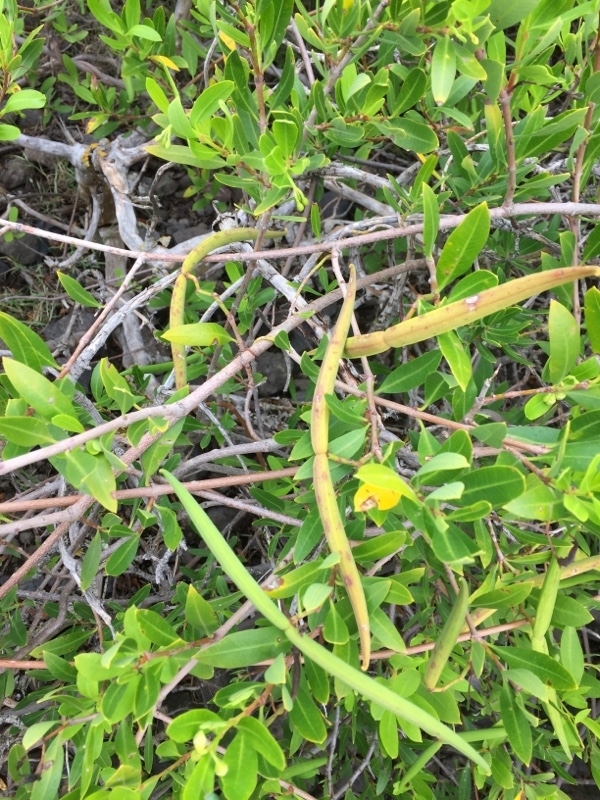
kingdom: Plantae
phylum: Tracheophyta
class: Magnoliopsida
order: Gentianales
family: Apocynaceae
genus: Periploca
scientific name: Periploca laevigata
